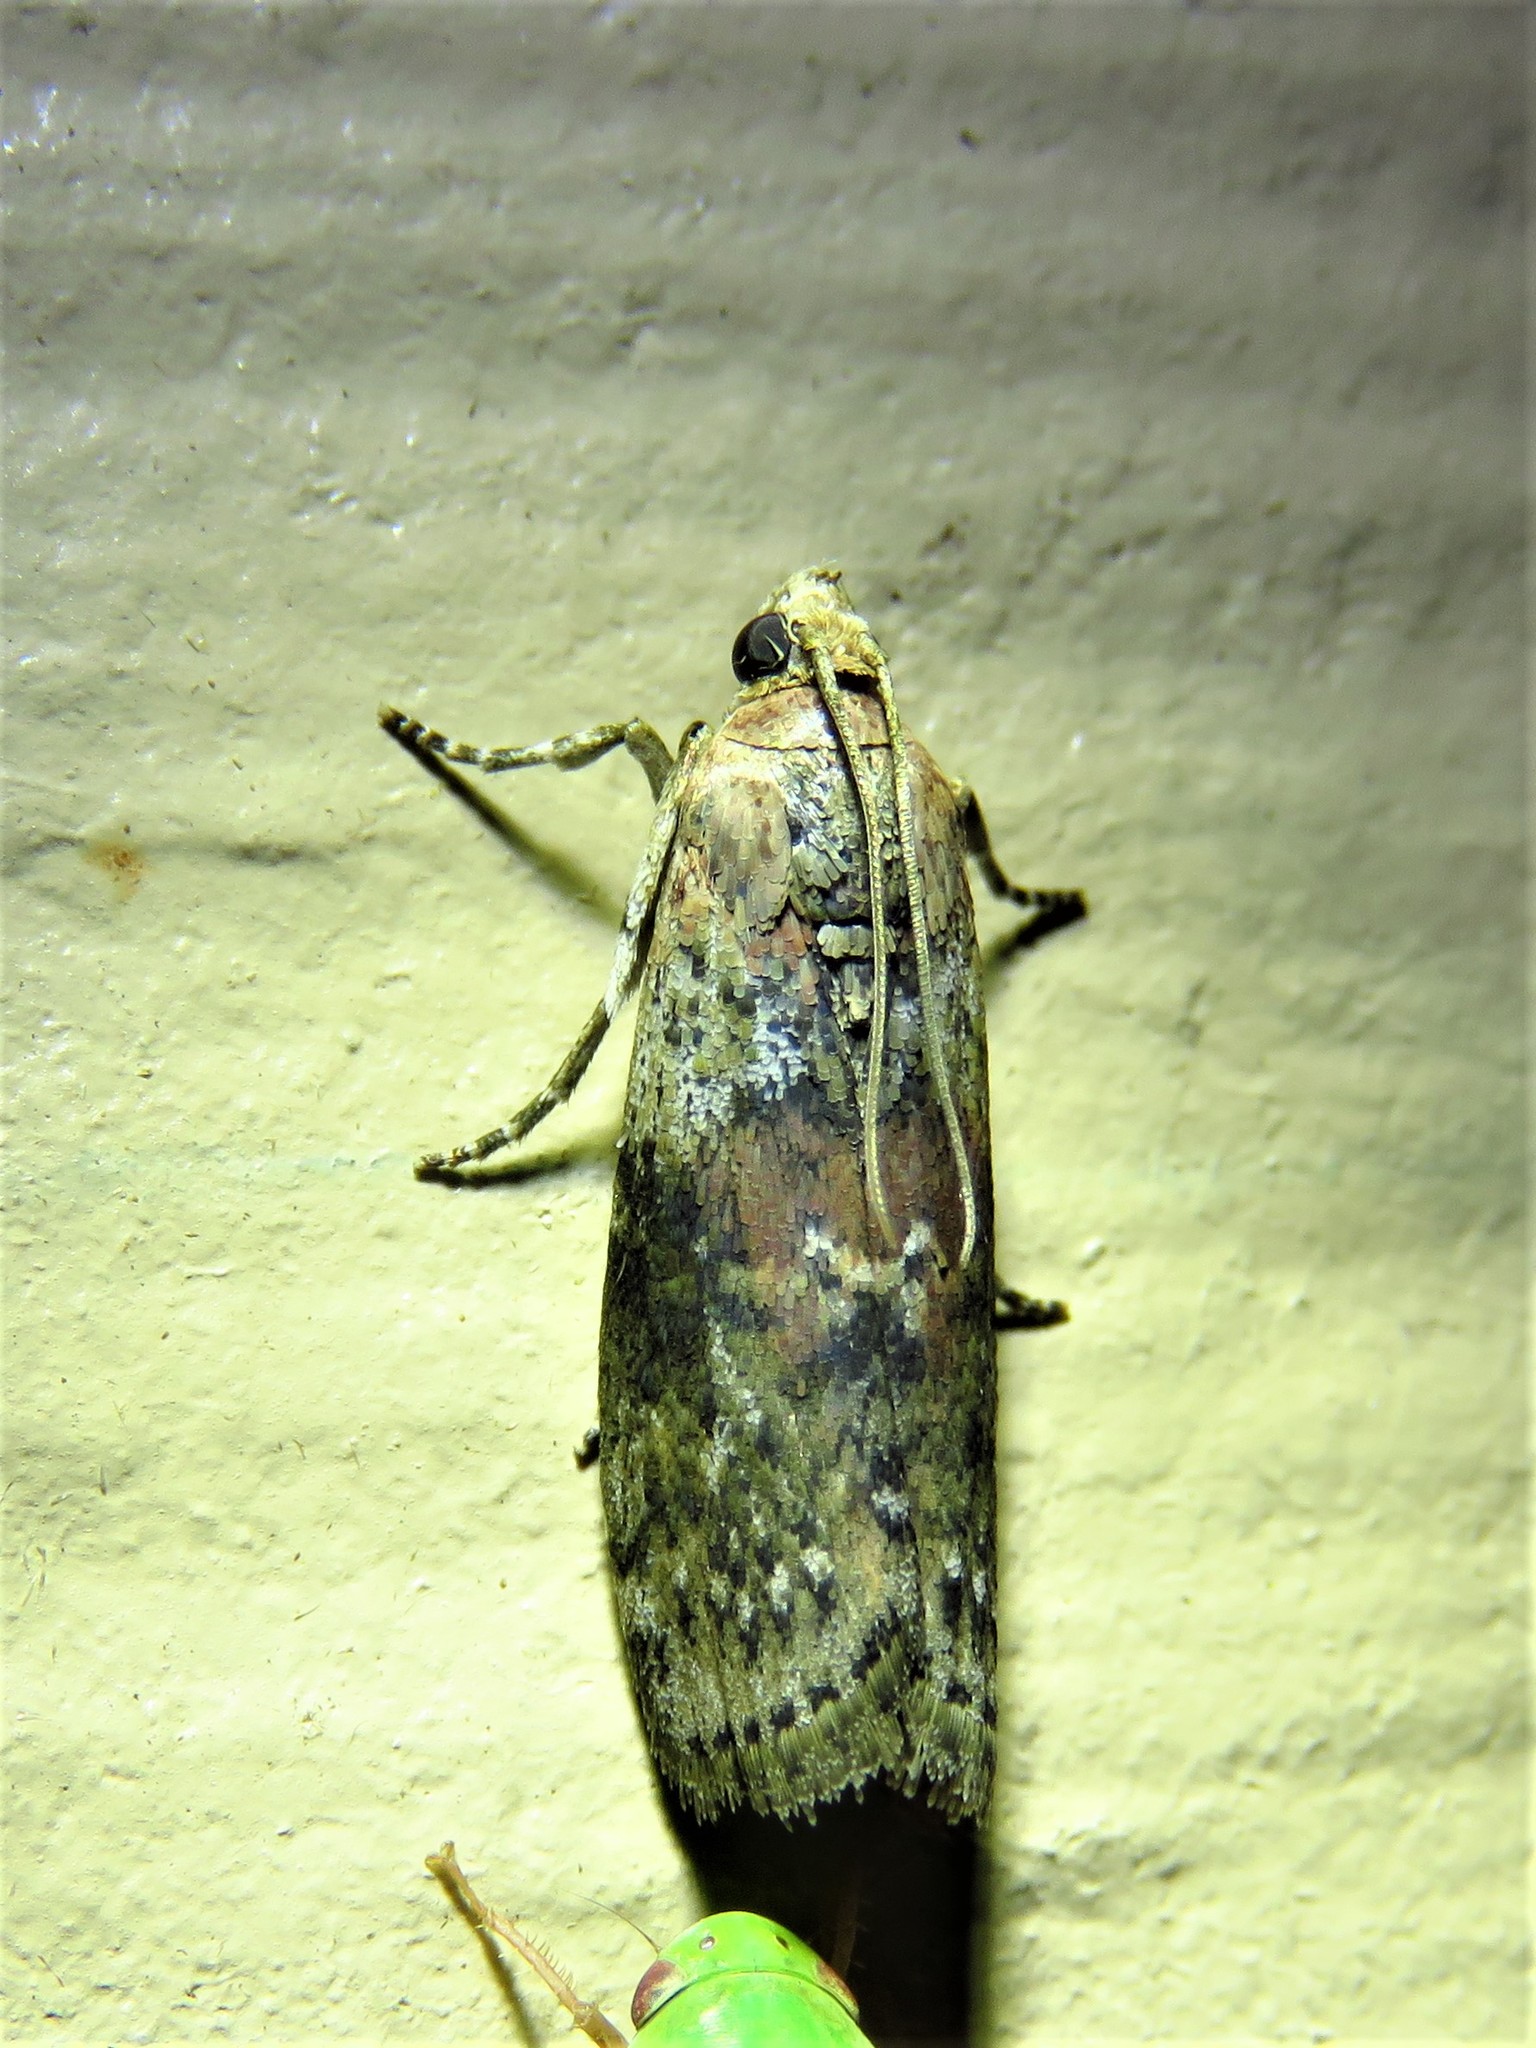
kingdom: Animalia
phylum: Arthropoda
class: Insecta
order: Lepidoptera
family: Pyralidae
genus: Sciota
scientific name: Sciota celtidella
